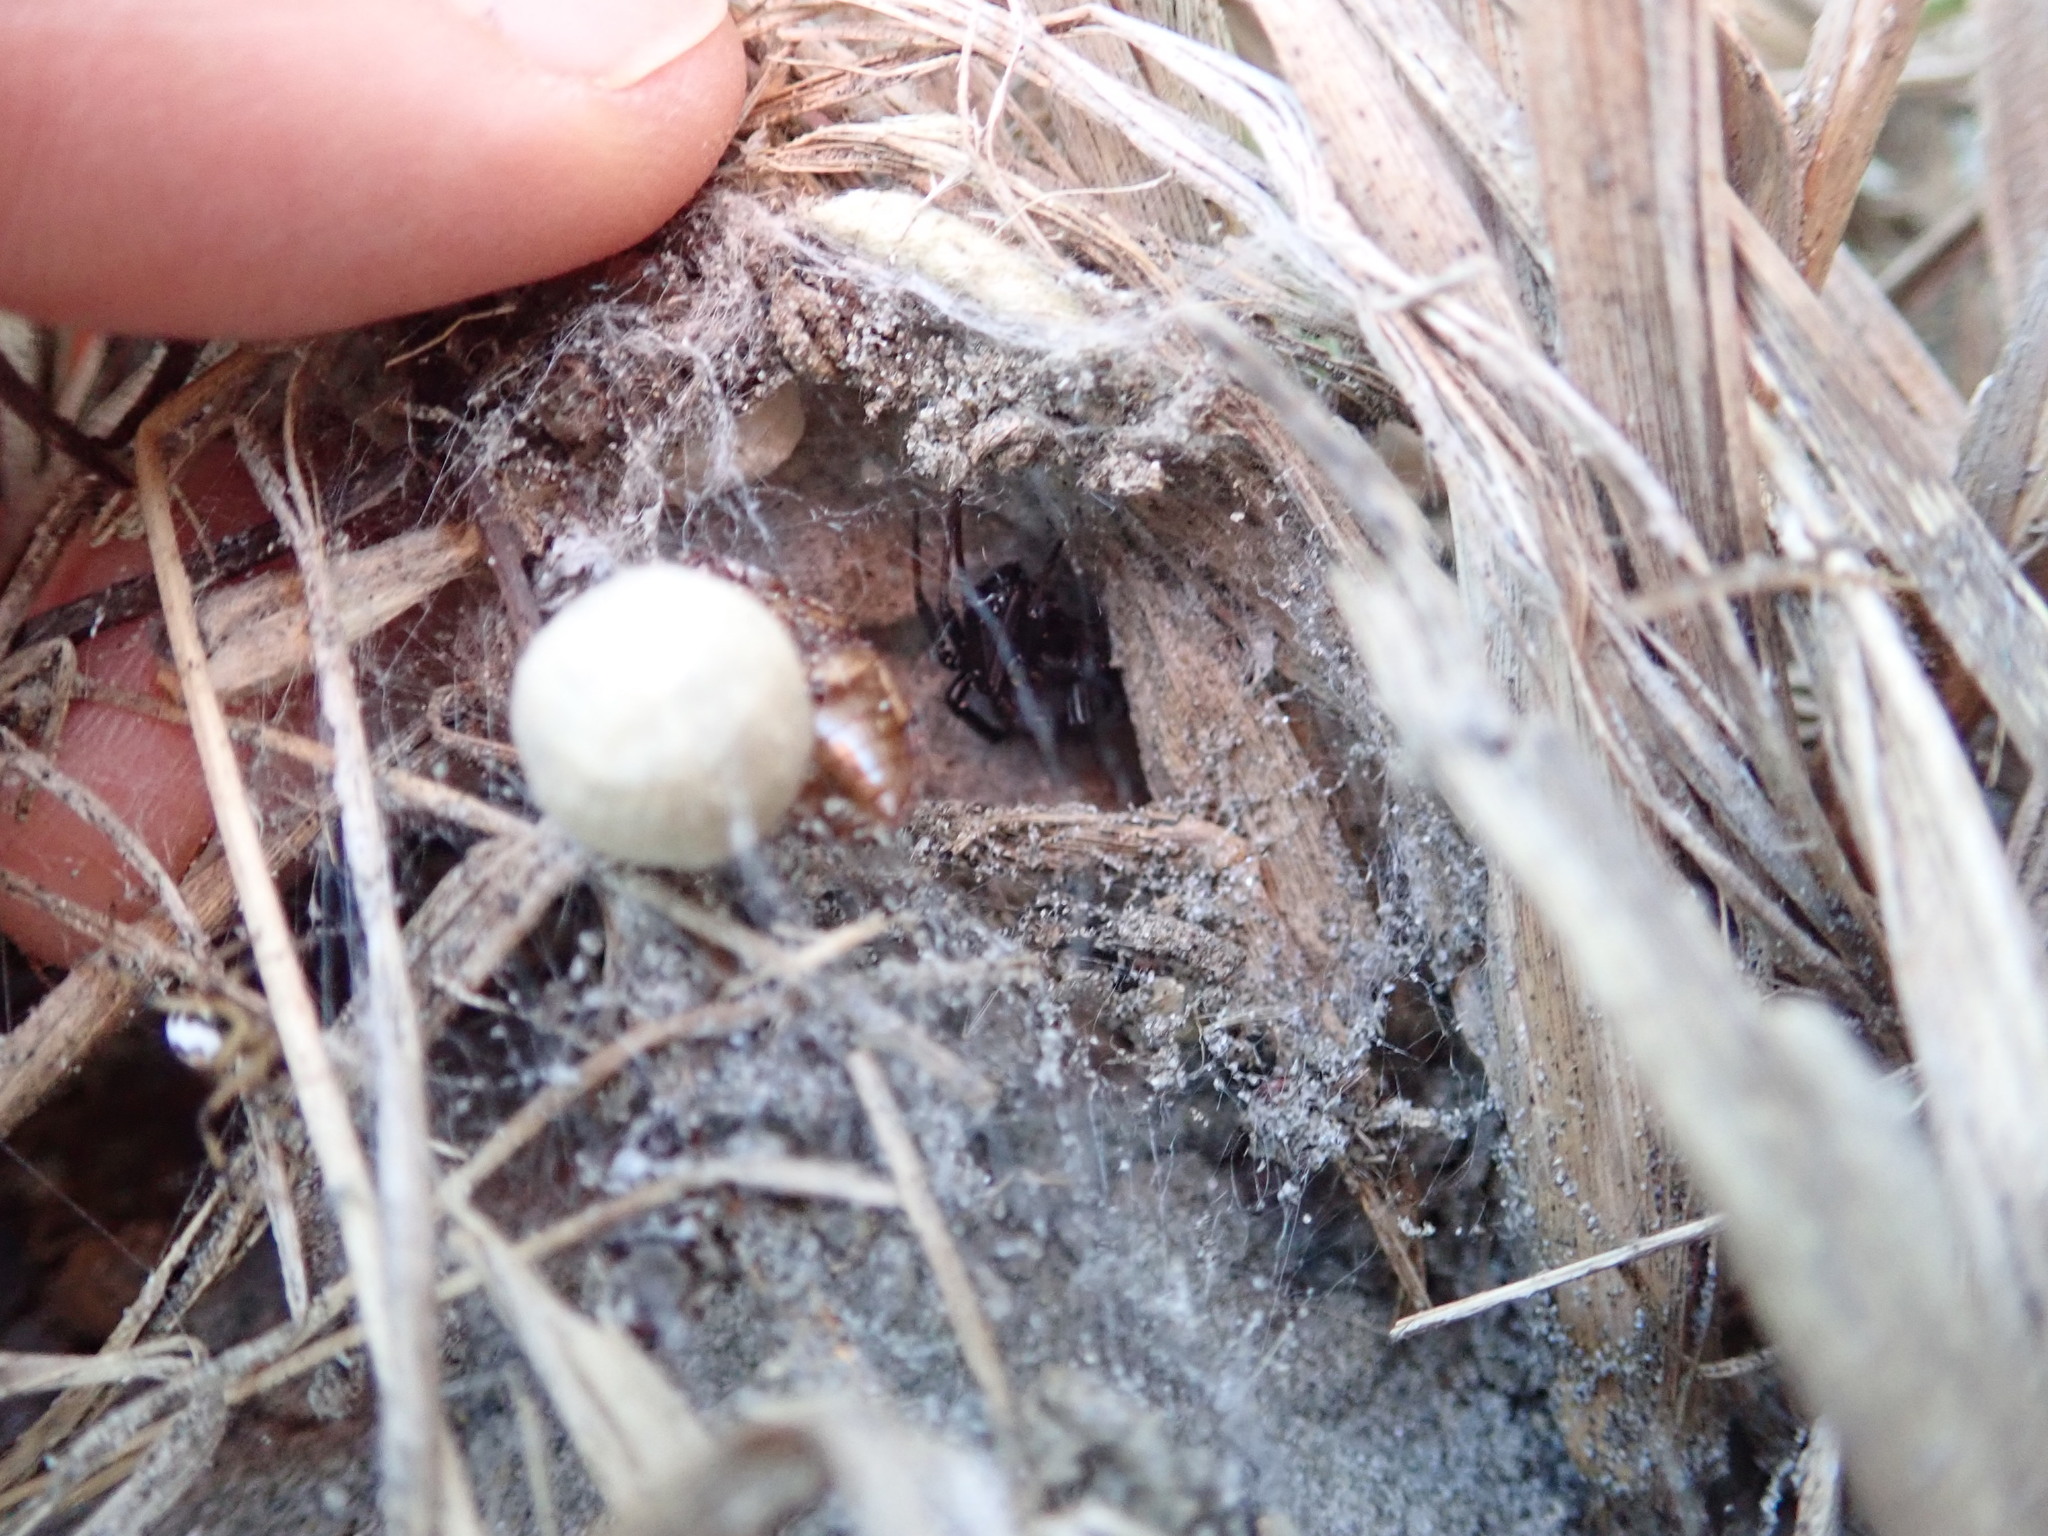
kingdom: Animalia
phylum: Arthropoda
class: Arachnida
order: Araneae
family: Theridiidae
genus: Latrodectus
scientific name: Latrodectus katipo
